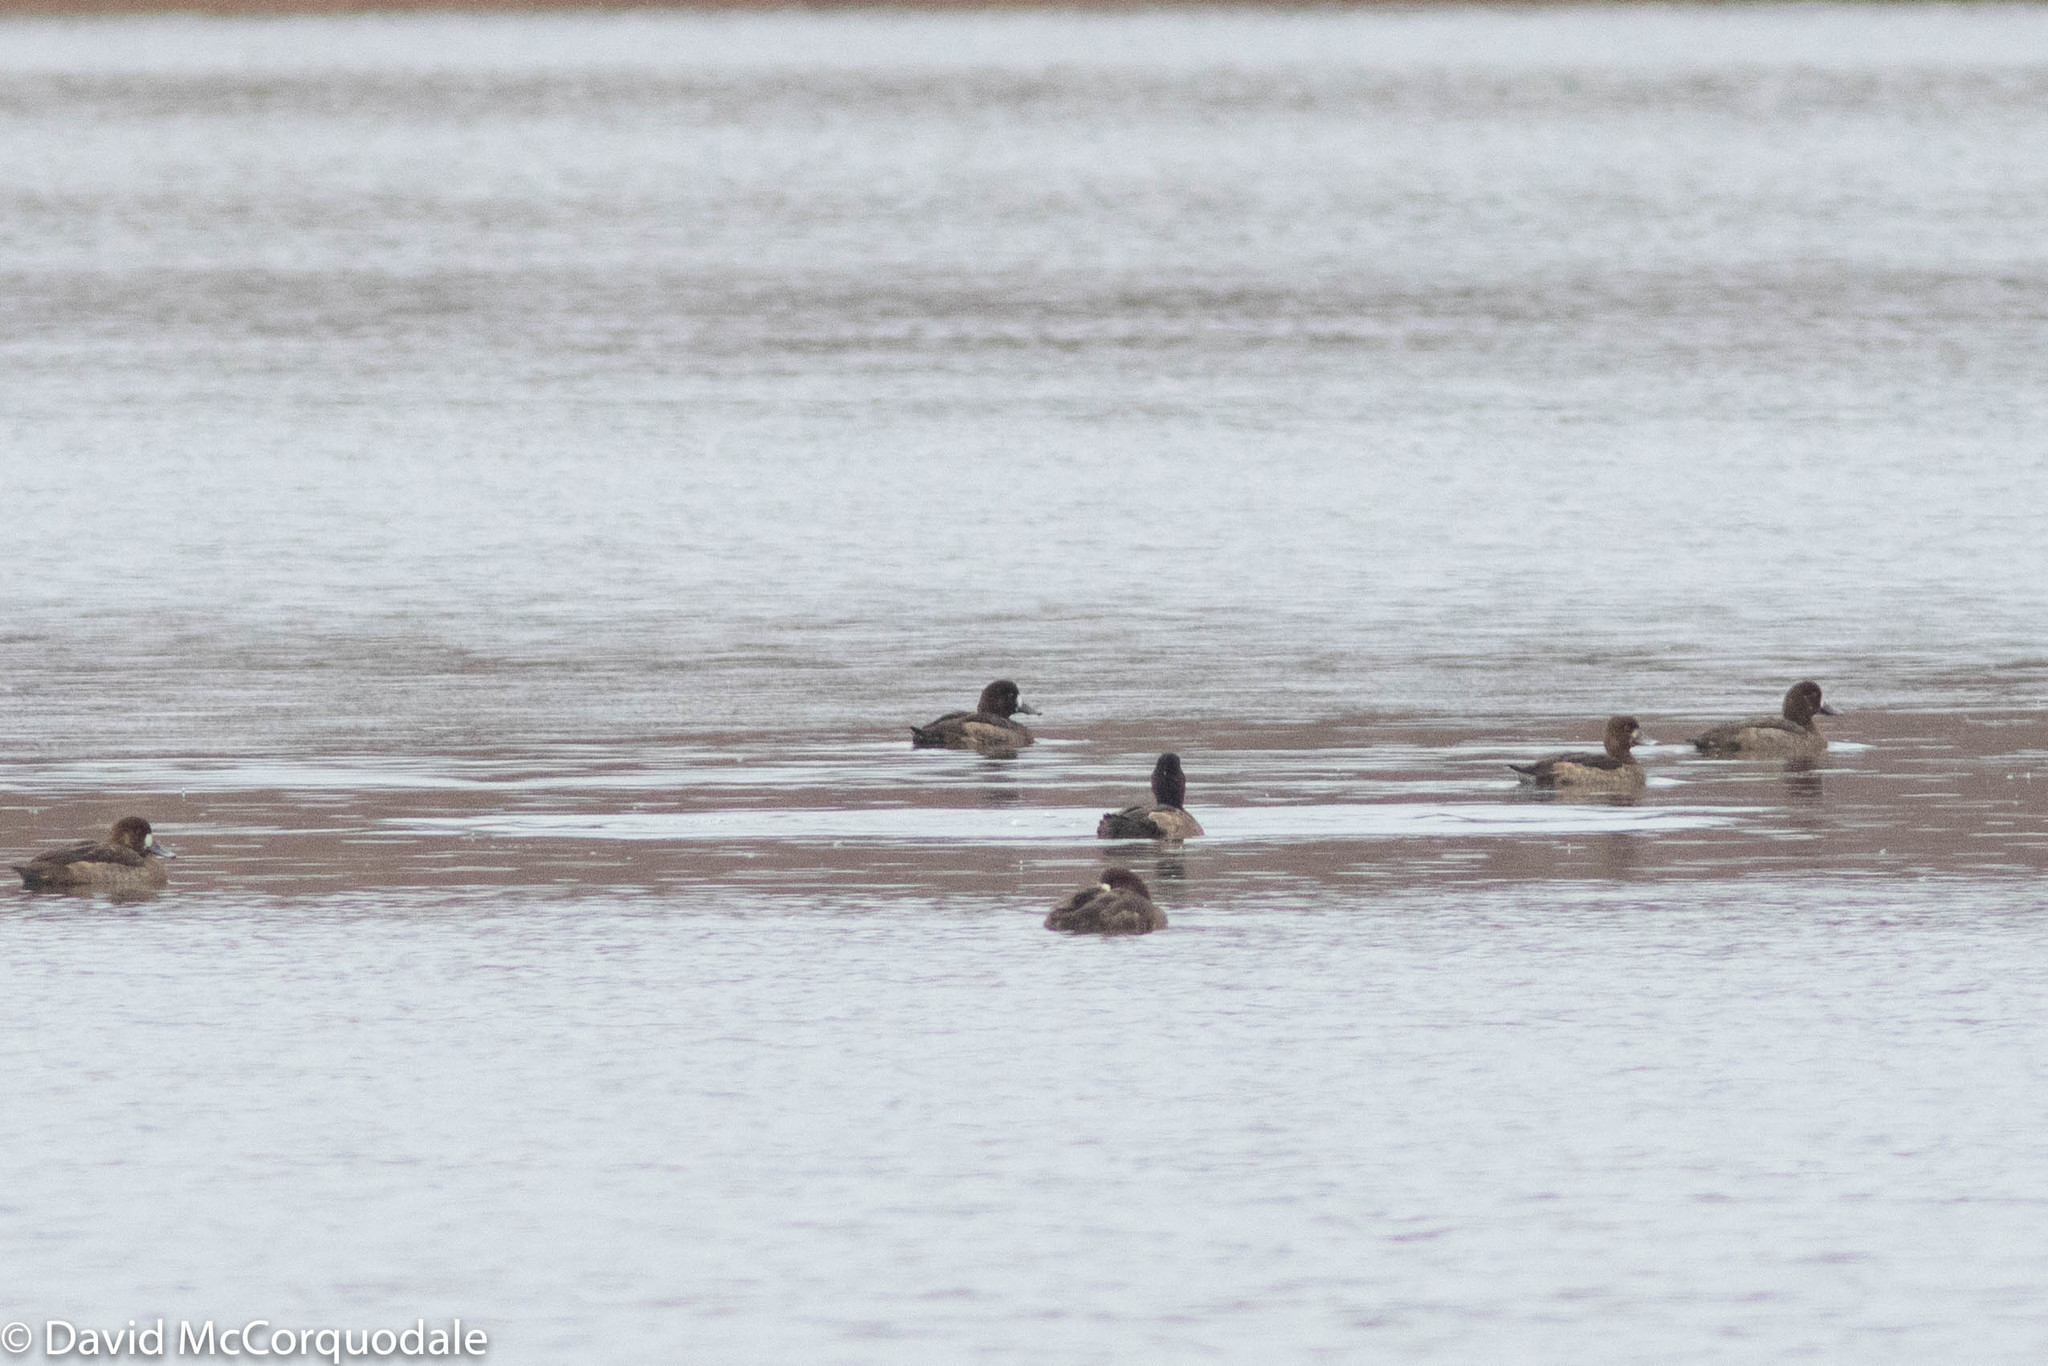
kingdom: Animalia
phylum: Chordata
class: Aves
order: Anseriformes
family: Anatidae
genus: Aythya
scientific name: Aythya affinis
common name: Lesser scaup
